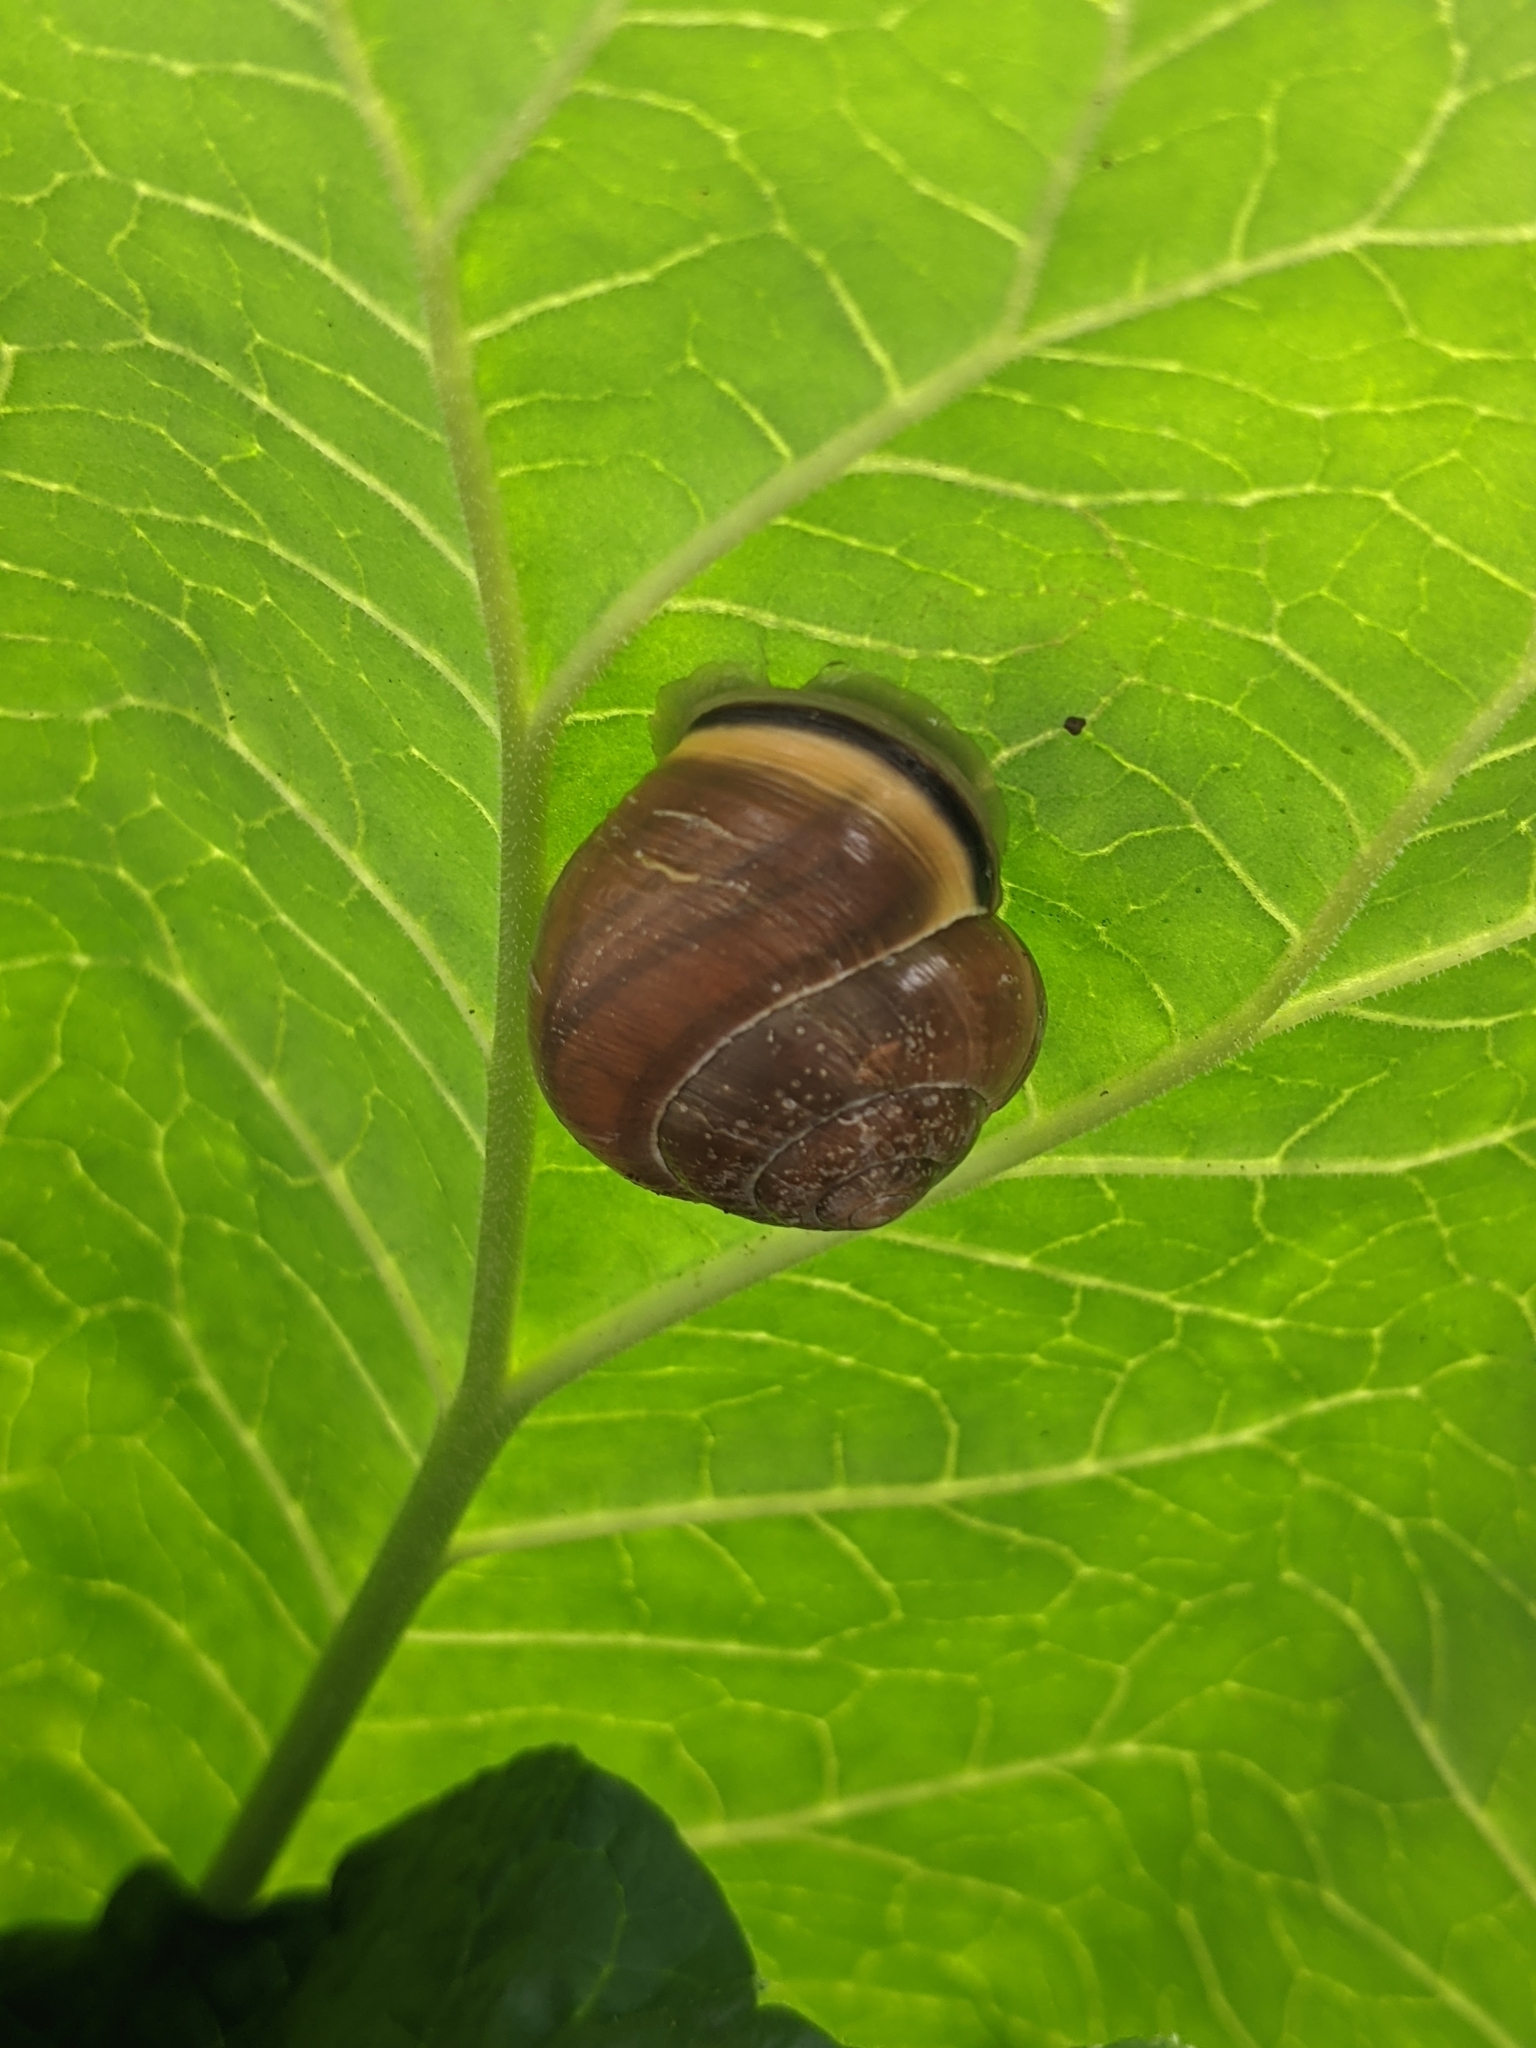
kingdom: Animalia
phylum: Mollusca
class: Gastropoda
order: Stylommatophora
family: Helicidae
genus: Cepaea
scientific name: Cepaea nemoralis
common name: Grovesnail
